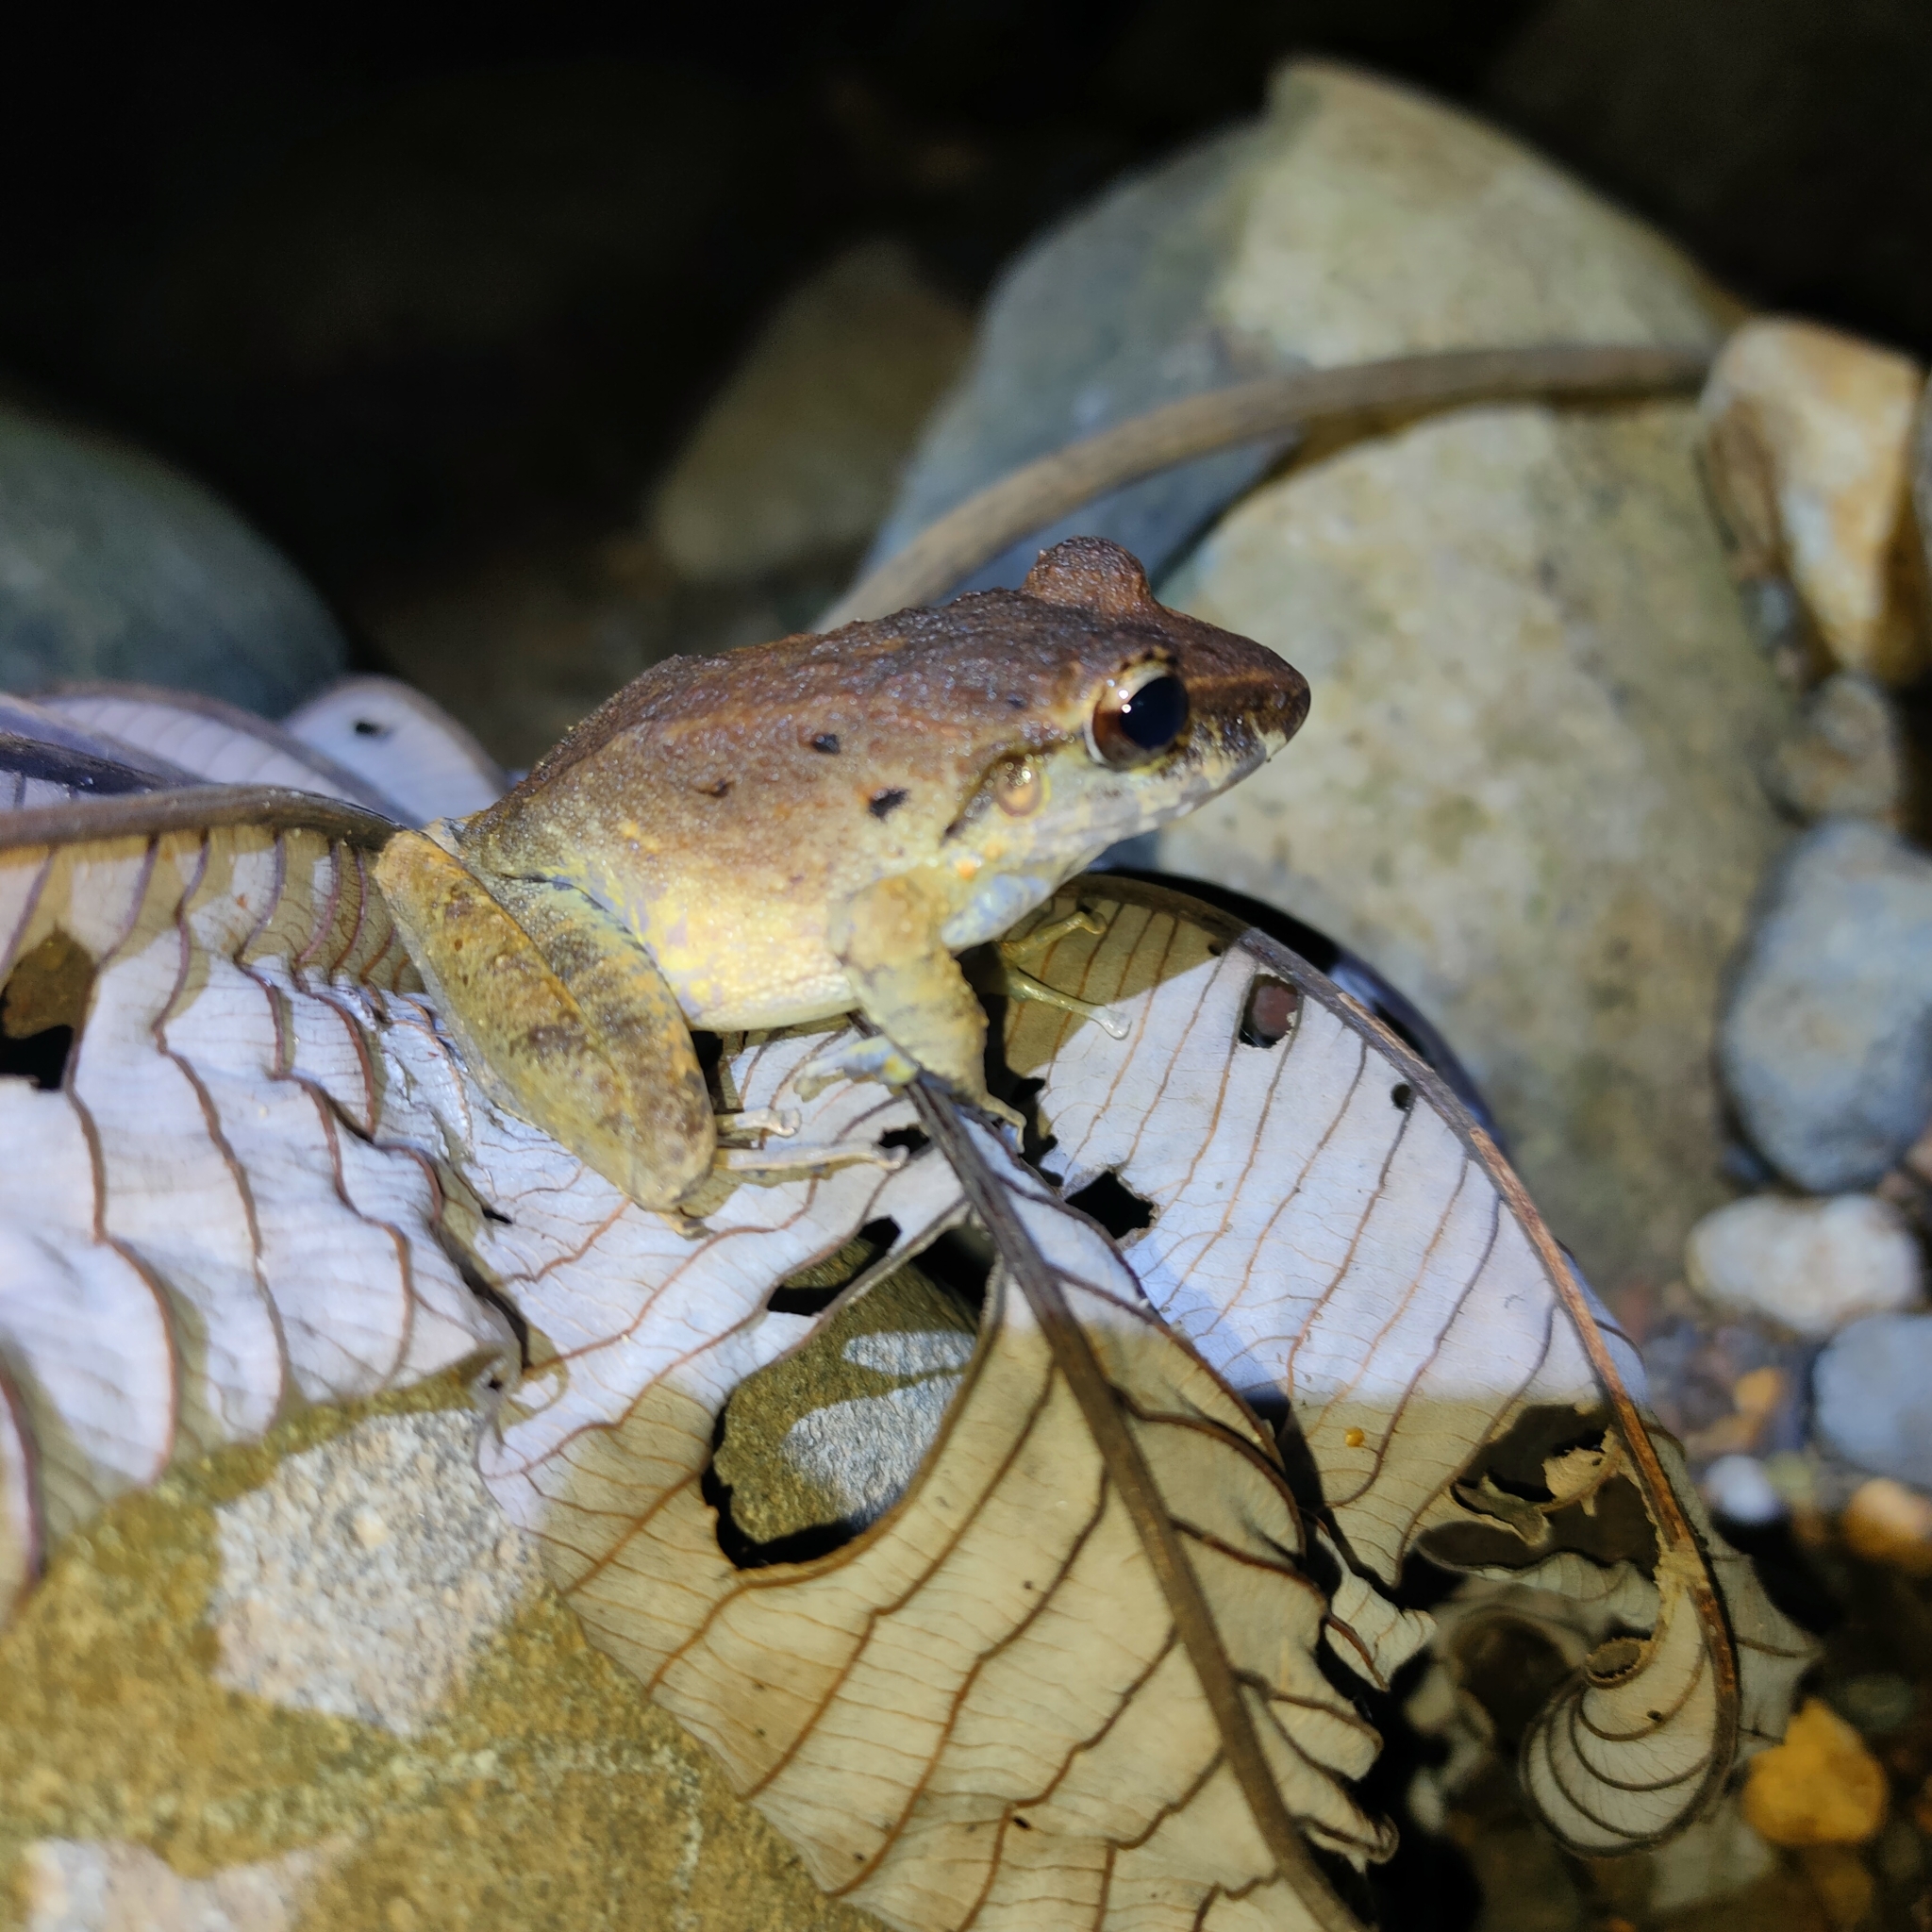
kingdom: Animalia
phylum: Chordata
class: Amphibia
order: Anura
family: Craugastoridae
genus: Craugastor
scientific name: Craugastor fitzingeri
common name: Fitzinger's robber frog
